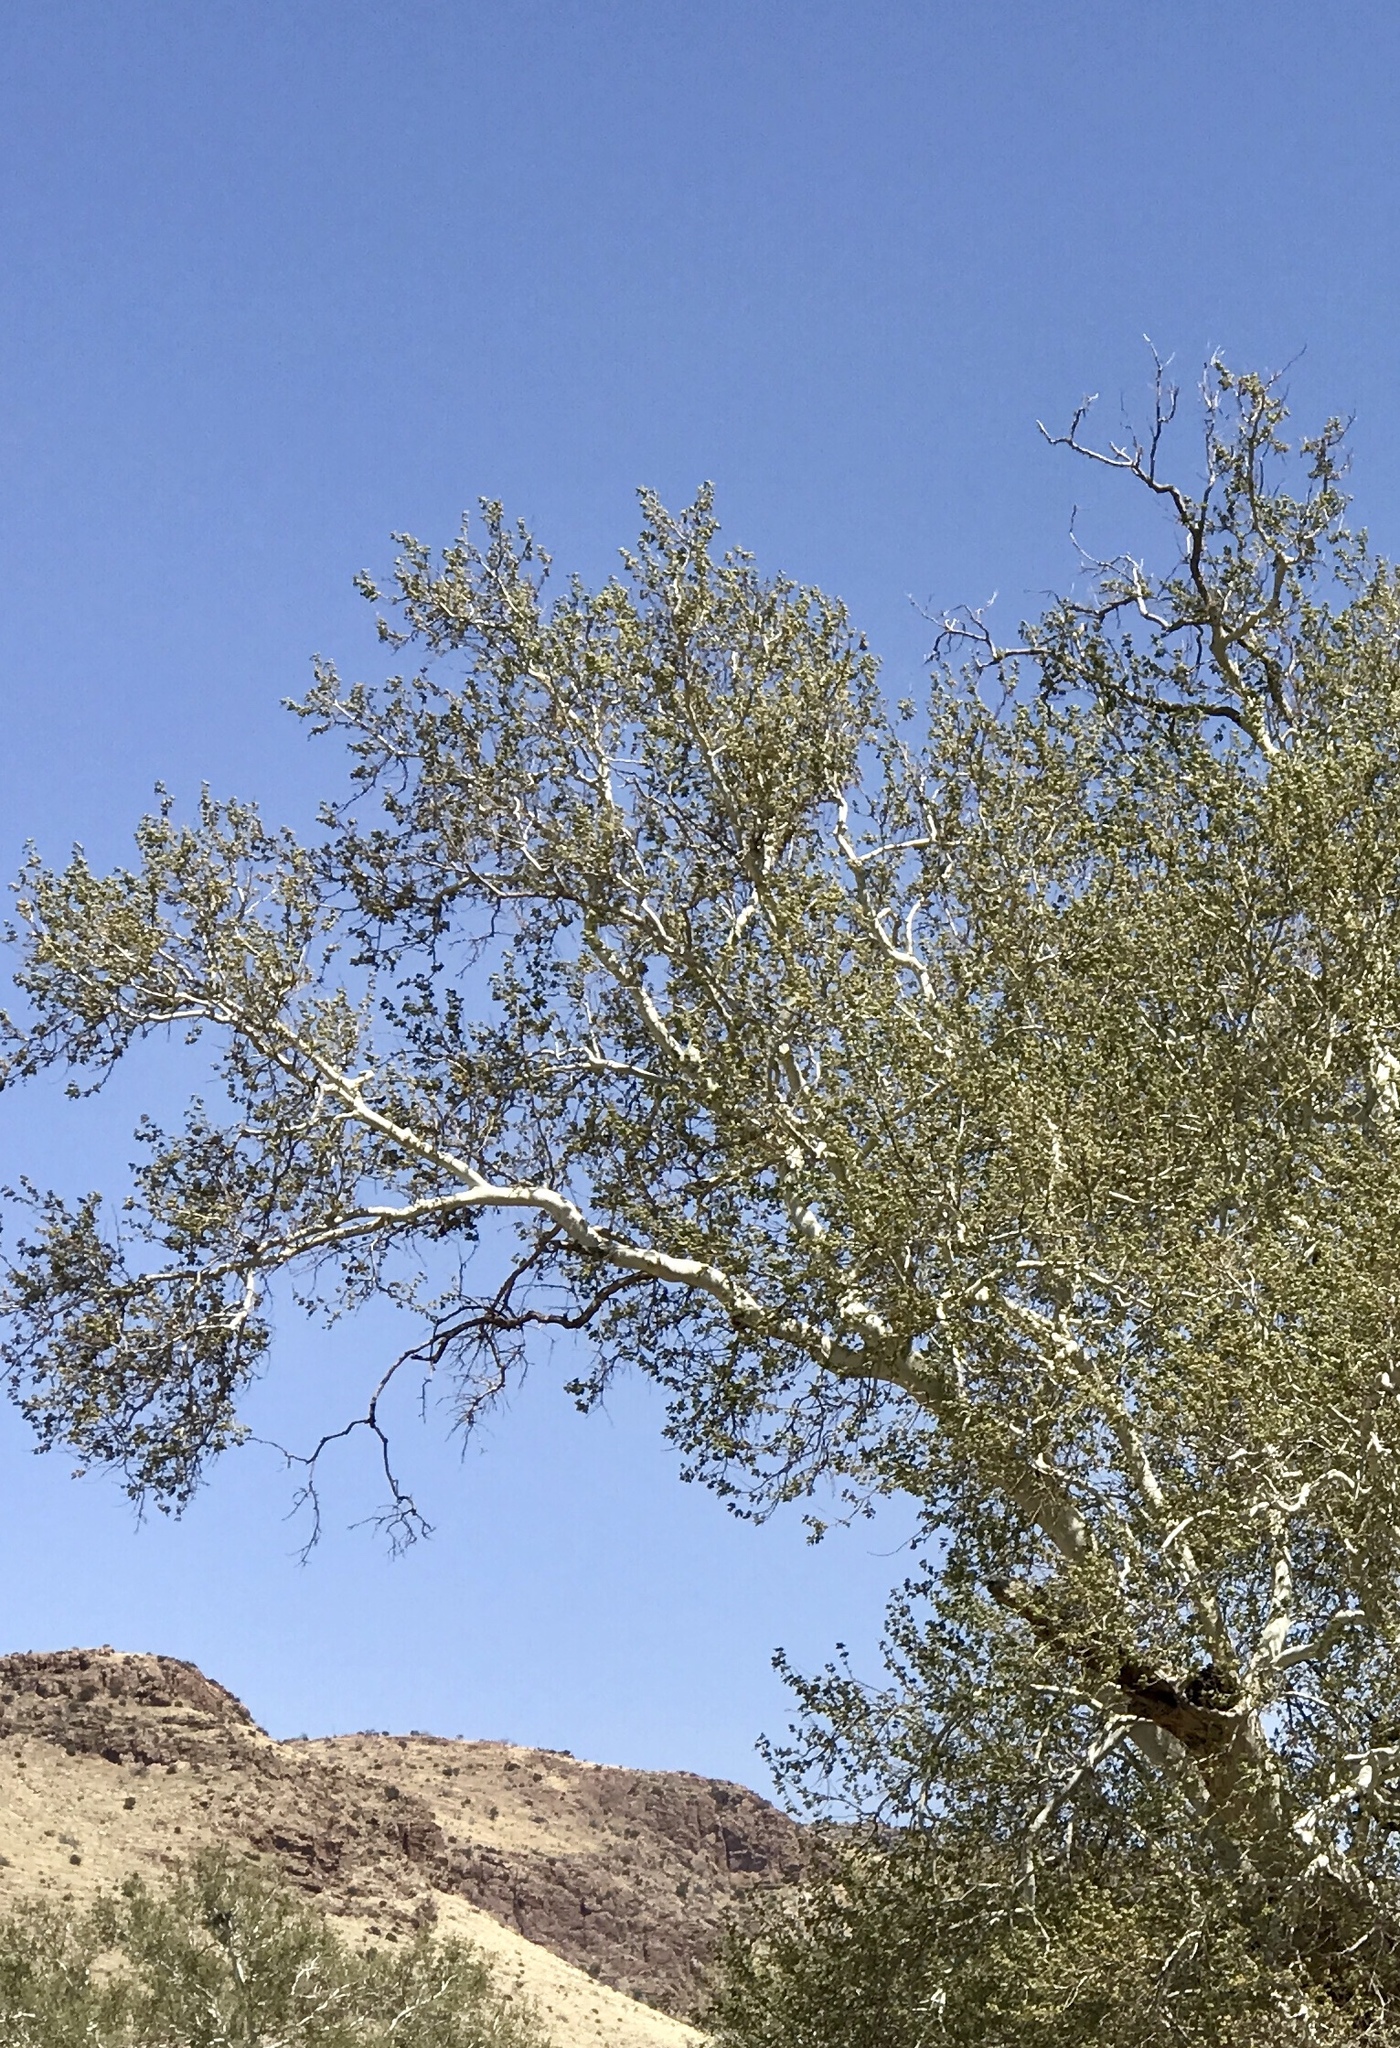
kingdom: Plantae
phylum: Tracheophyta
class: Magnoliopsida
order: Proteales
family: Platanaceae
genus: Platanus
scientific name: Platanus wrightii
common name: Arizona sycamore
